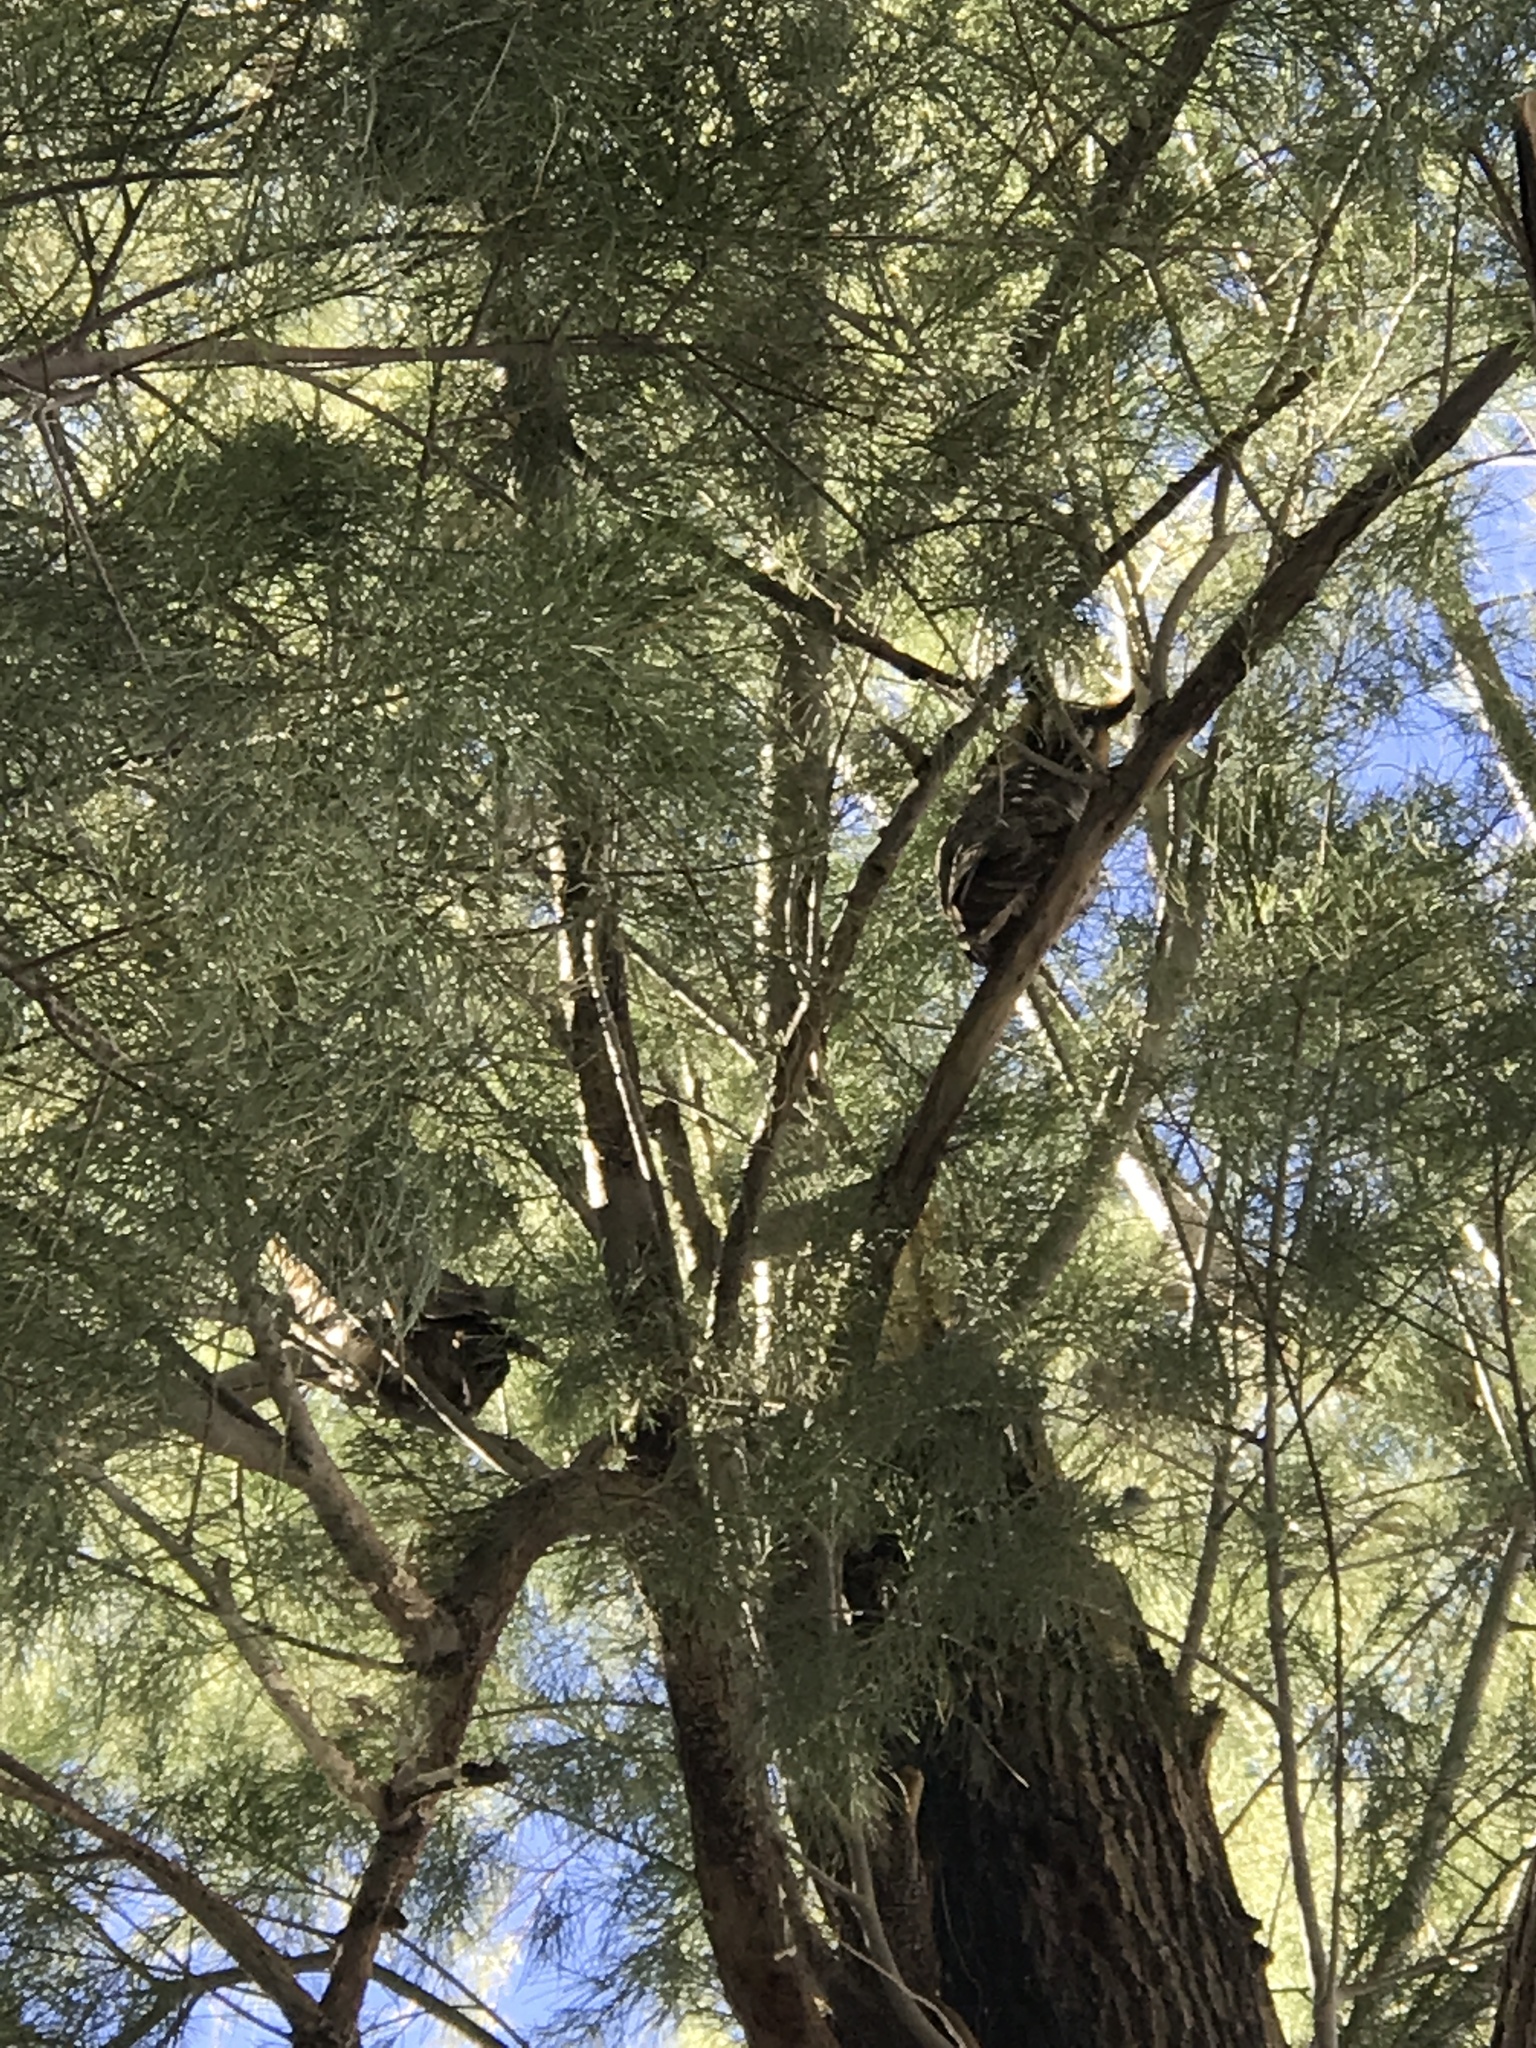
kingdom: Animalia
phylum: Chordata
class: Aves
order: Strigiformes
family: Strigidae
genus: Asio
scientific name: Asio otus
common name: Long-eared owl
